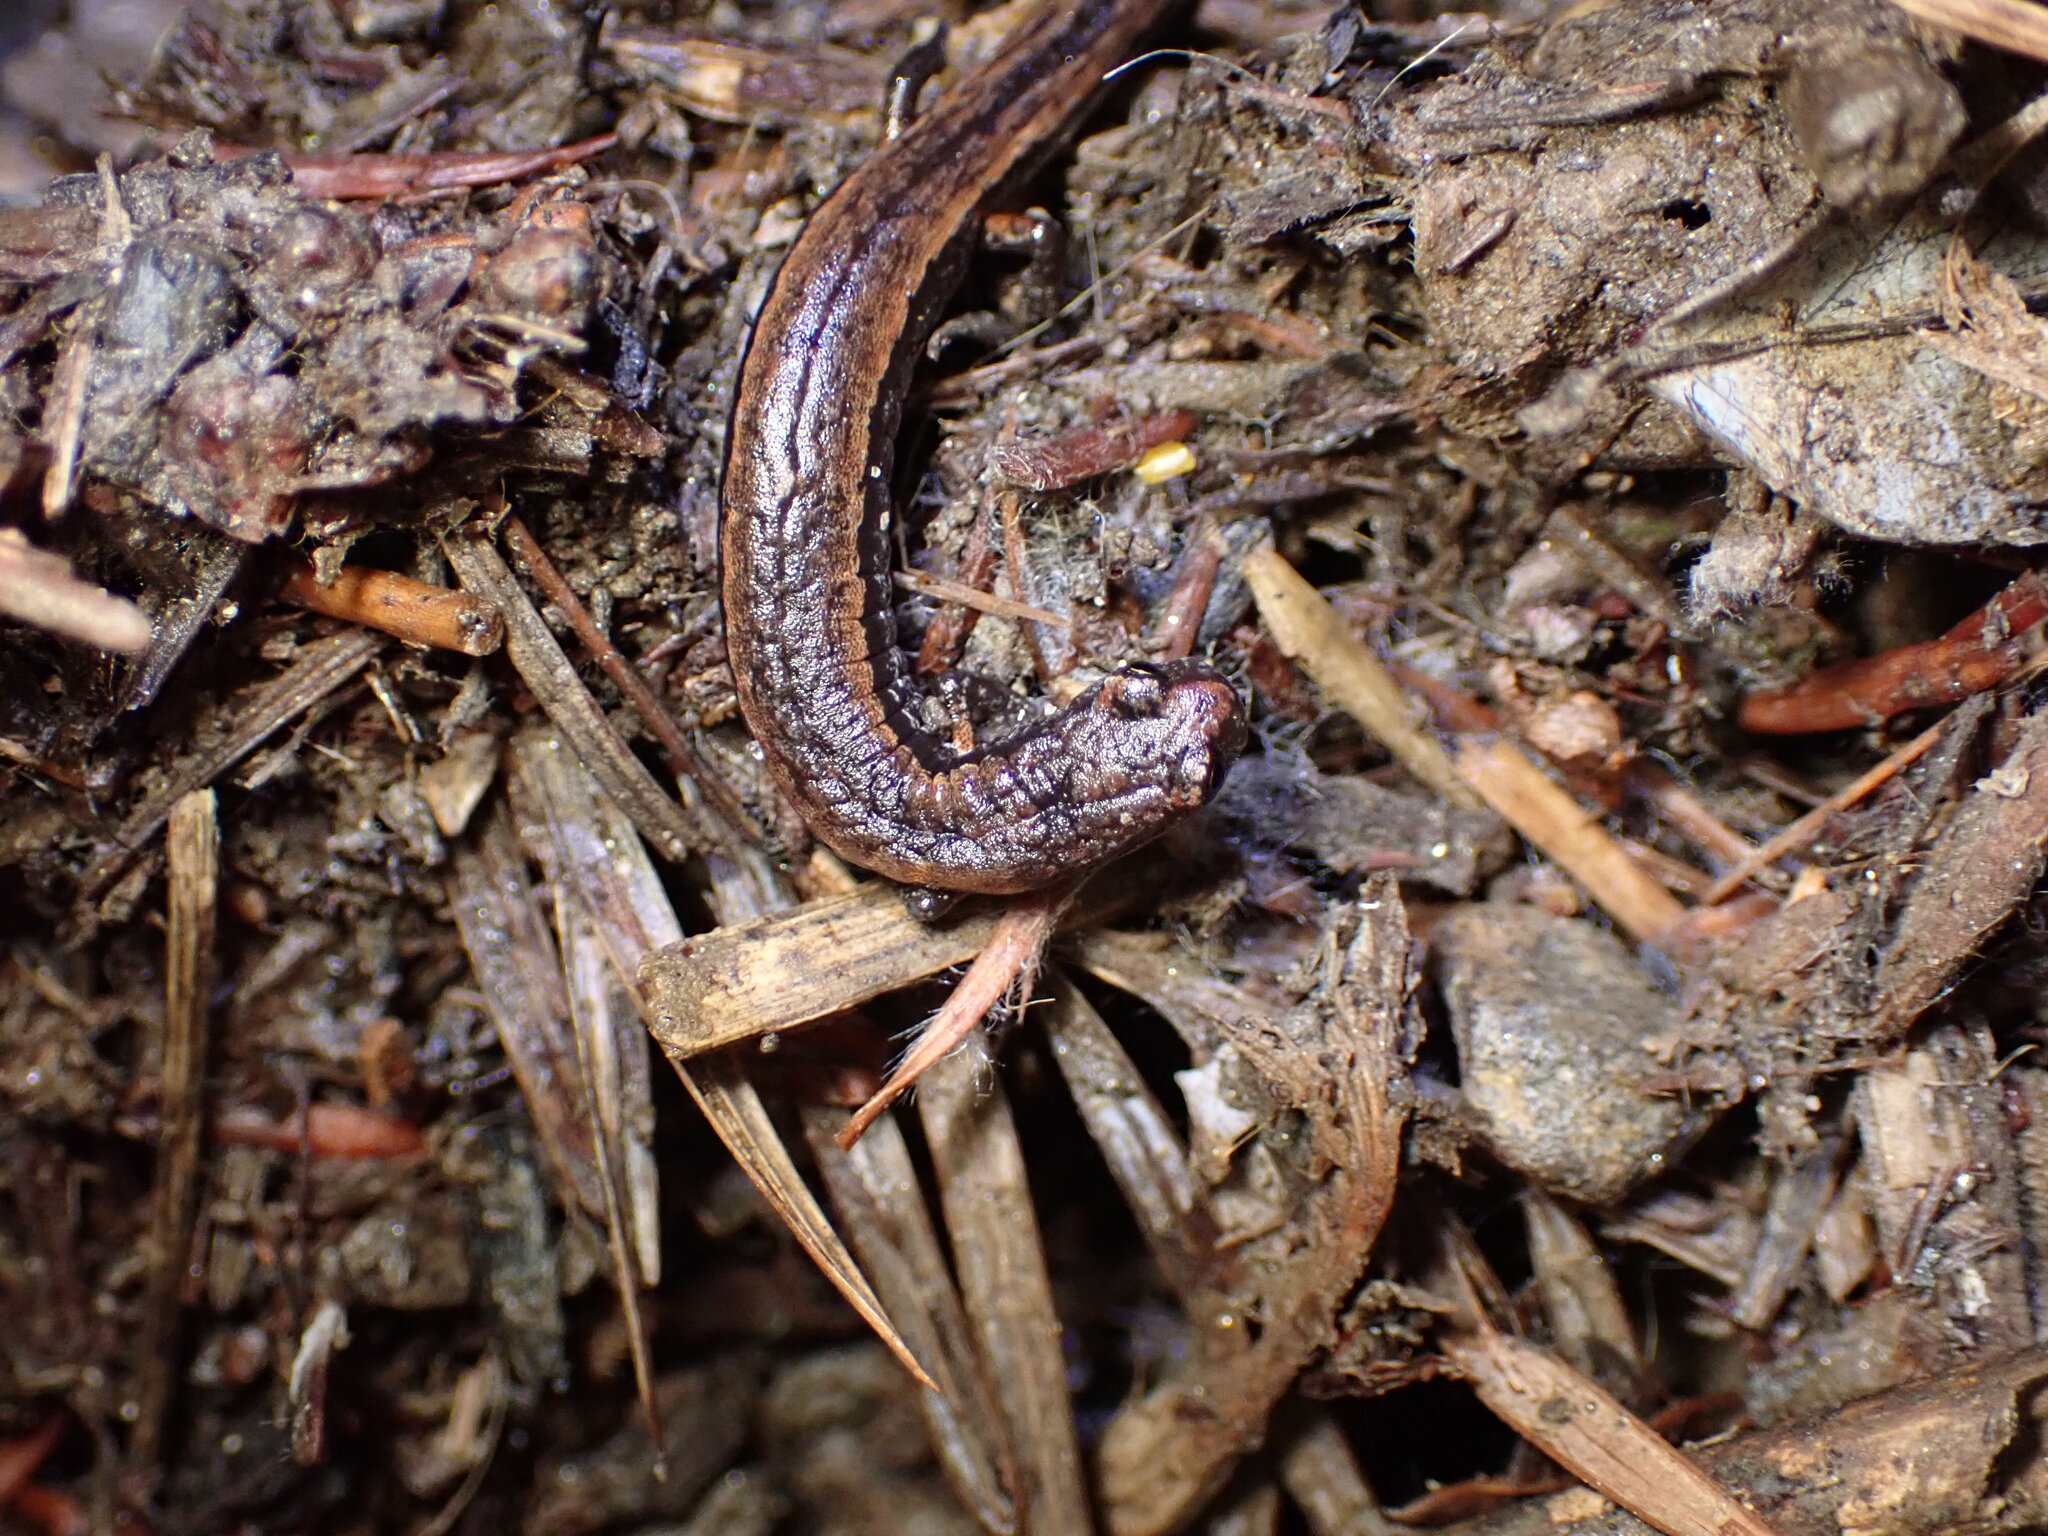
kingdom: Animalia
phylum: Chordata
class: Amphibia
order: Caudata
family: Plethodontidae
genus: Batrachoseps
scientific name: Batrachoseps attenuatus
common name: California slender salamander
